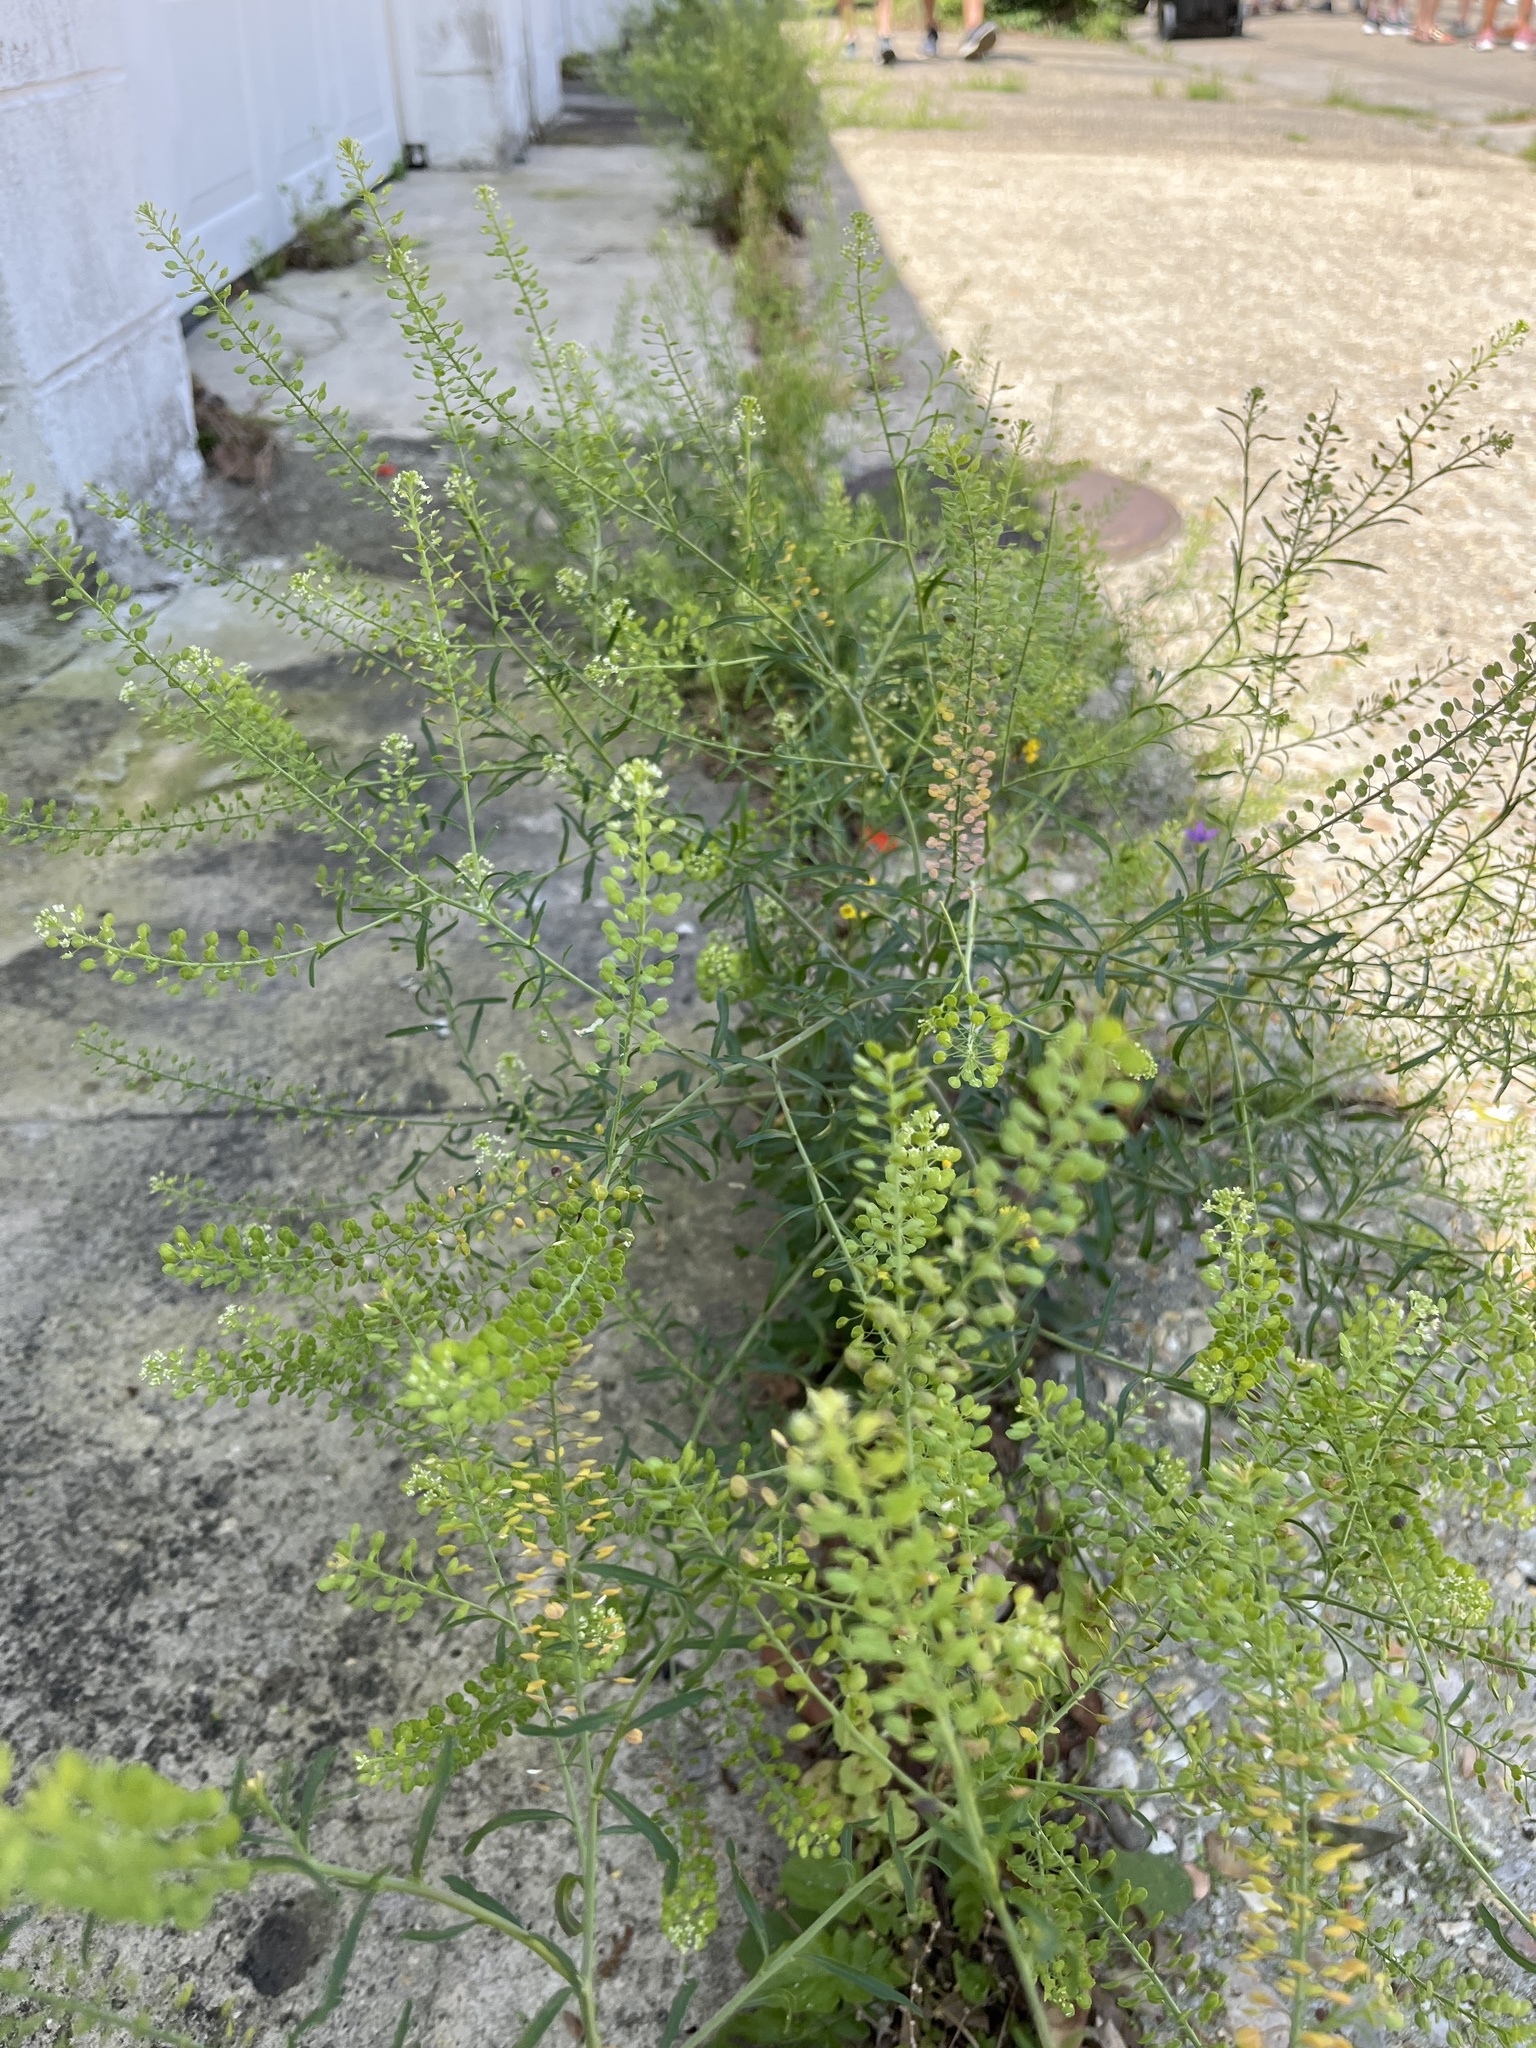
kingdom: Plantae
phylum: Tracheophyta
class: Magnoliopsida
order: Brassicales
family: Brassicaceae
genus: Lepidium
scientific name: Lepidium virginicum
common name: Least pepperwort
